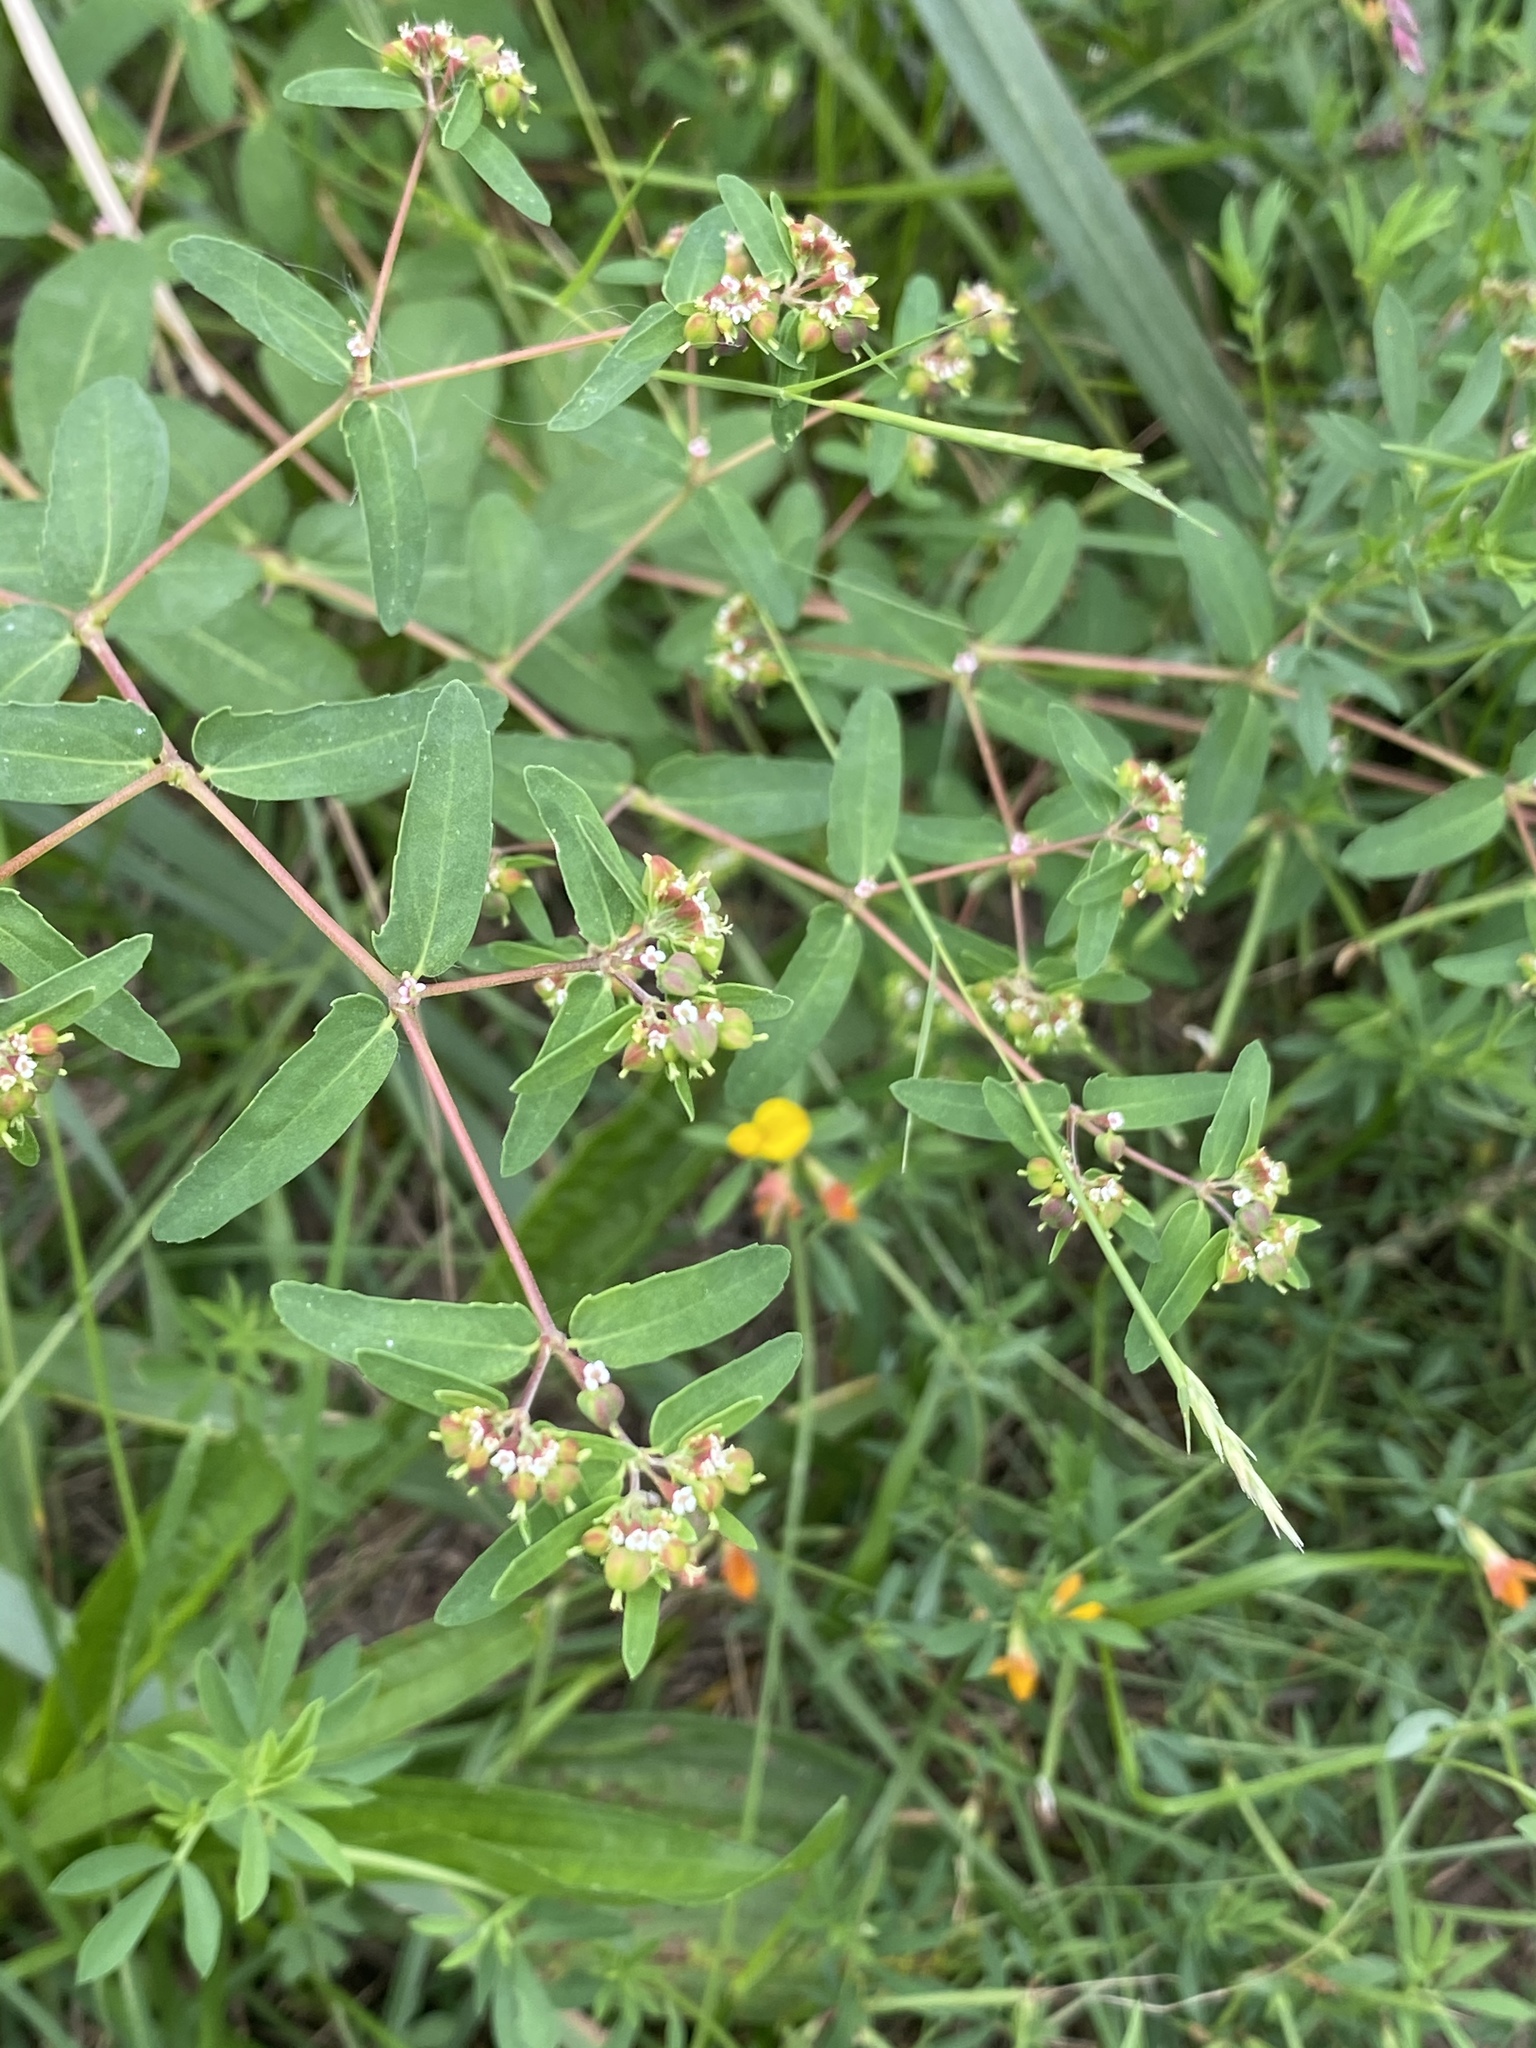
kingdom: Plantae
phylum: Tracheophyta
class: Magnoliopsida
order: Malpighiales
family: Euphorbiaceae
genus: Euphorbia
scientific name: Euphorbia nutans
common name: Eyebane
